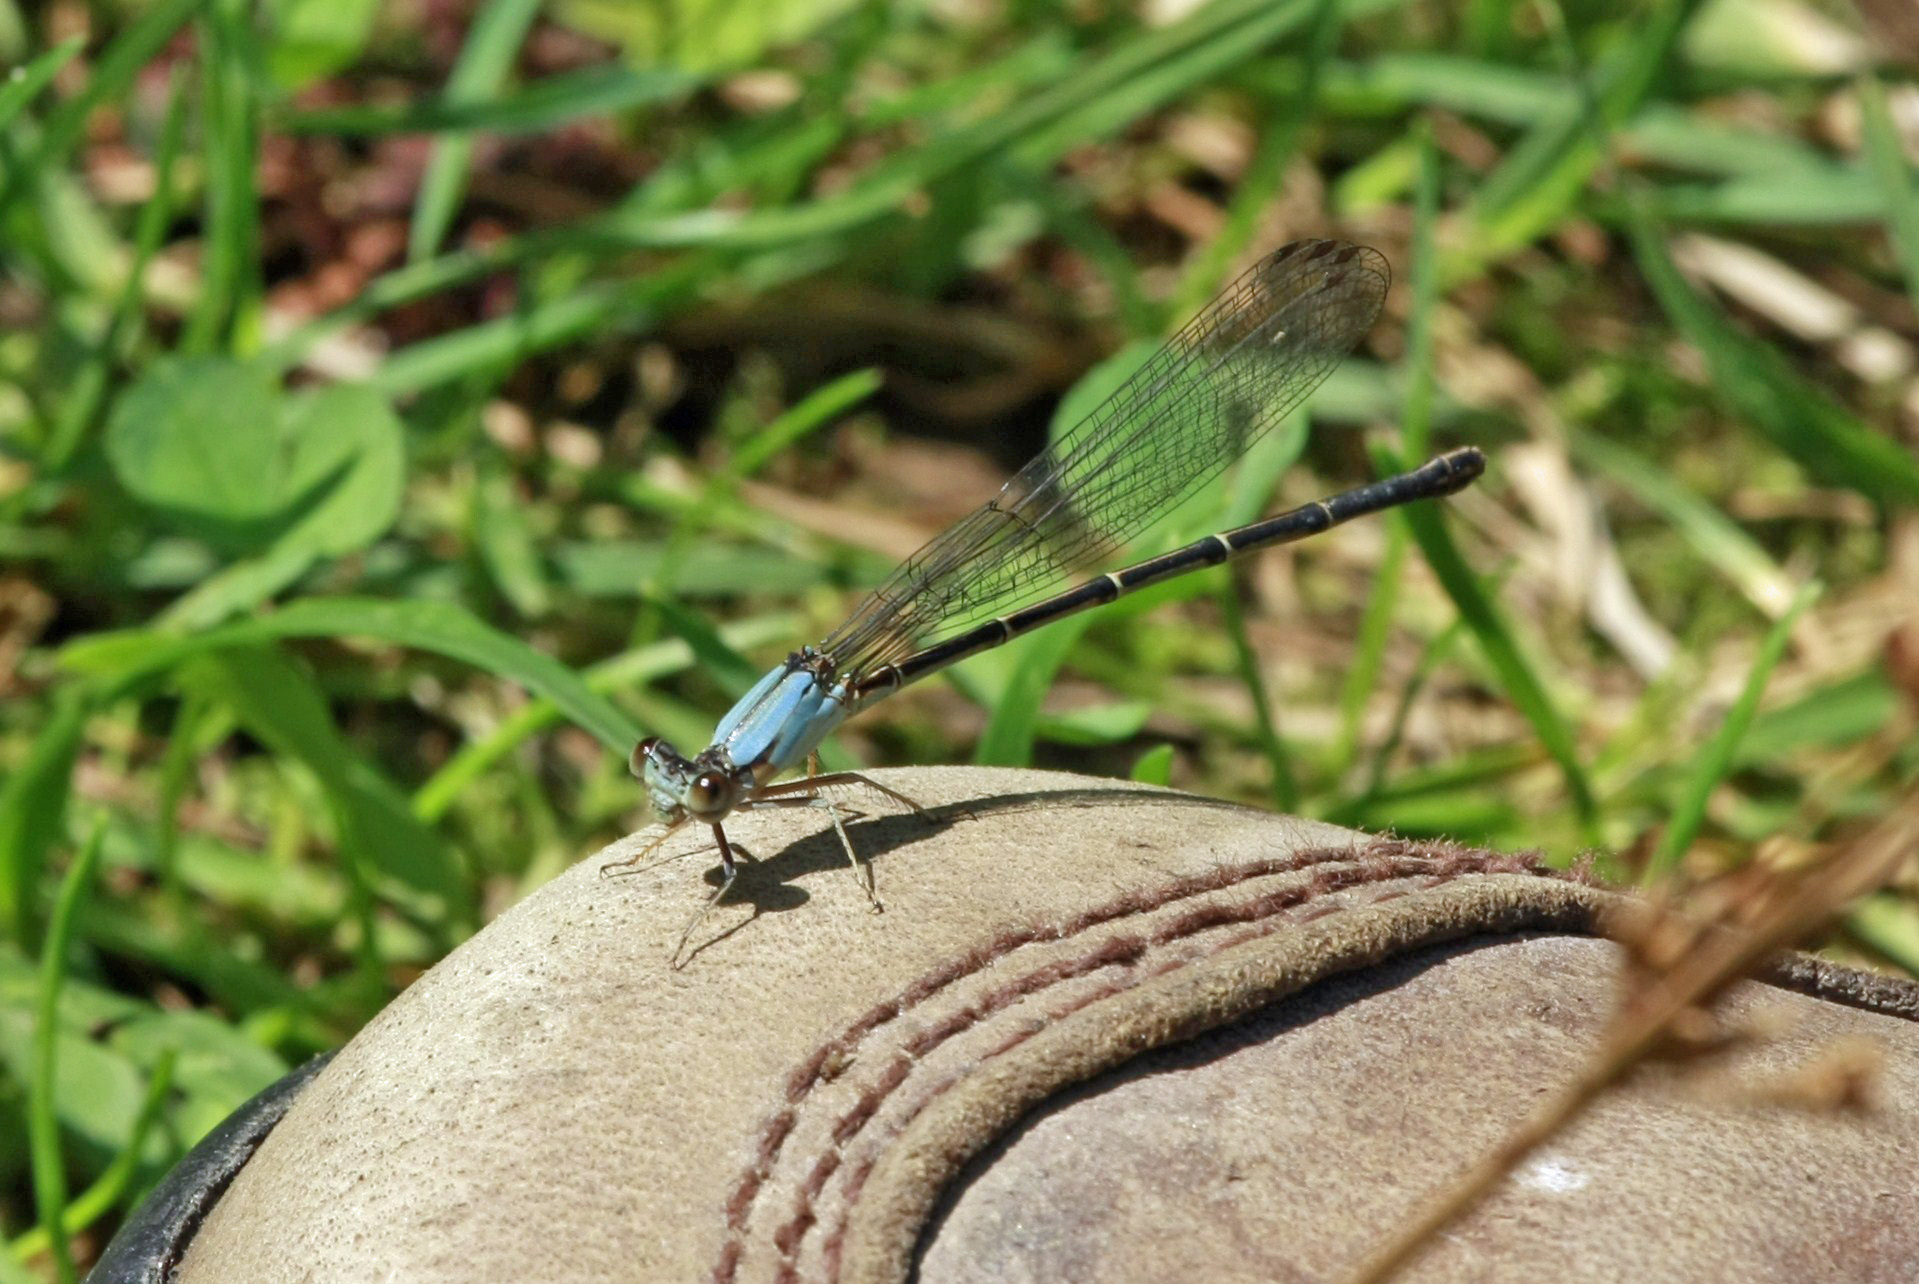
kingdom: Animalia
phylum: Arthropoda
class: Insecta
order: Odonata
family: Coenagrionidae
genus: Argia
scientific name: Argia apicalis
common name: Blue-fronted dancer
